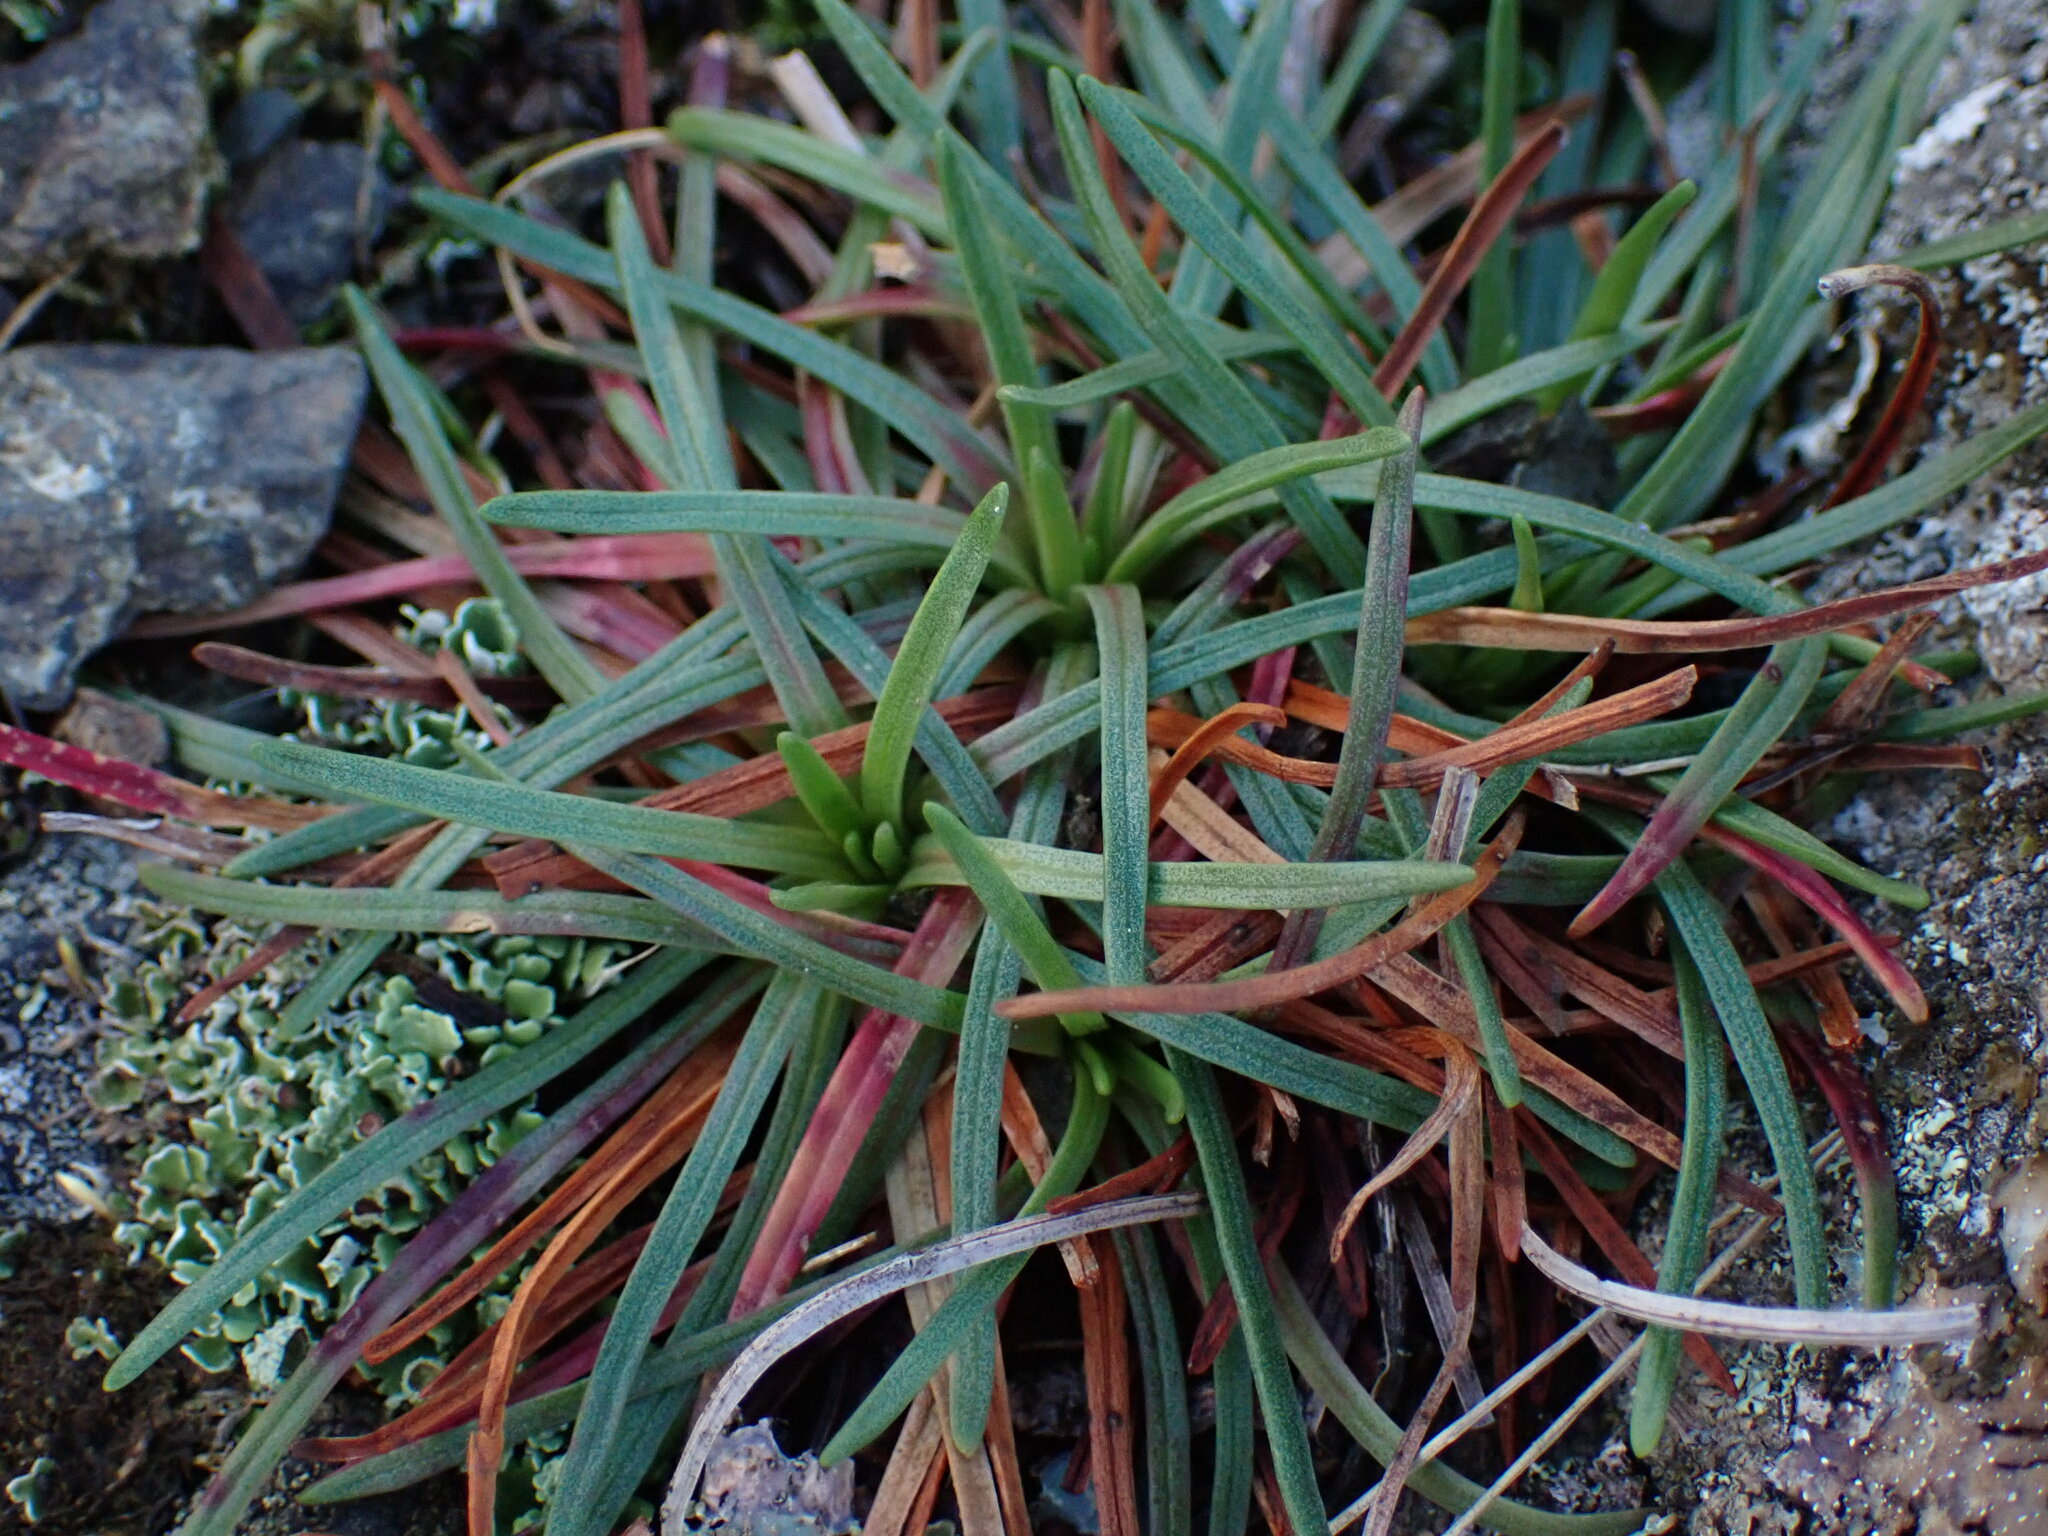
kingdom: Plantae
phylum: Tracheophyta
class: Magnoliopsida
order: Caryophyllales
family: Plumbaginaceae
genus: Armeria
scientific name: Armeria maritima
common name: Thrift
